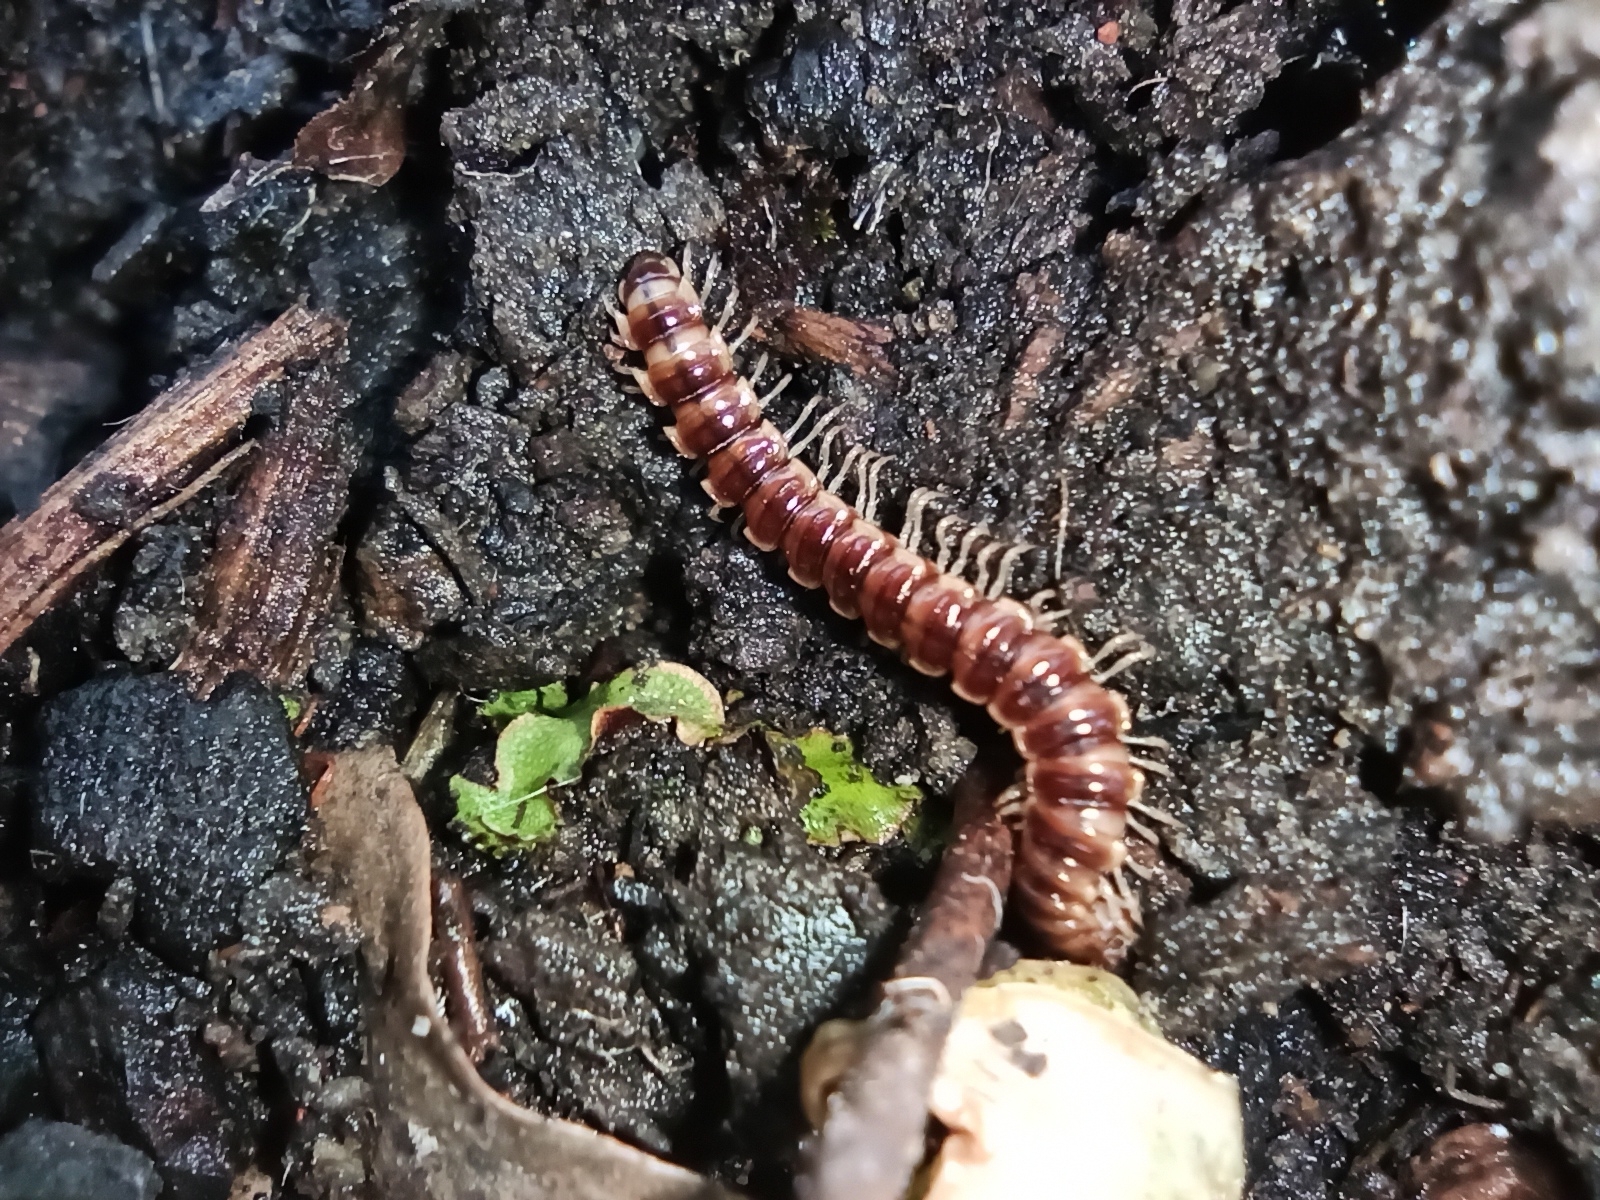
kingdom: Animalia
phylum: Arthropoda
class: Diplopoda
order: Polydesmida
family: Paradoxosomatidae
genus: Oxidus
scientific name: Oxidus gracilis
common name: Greenhouse millipede
